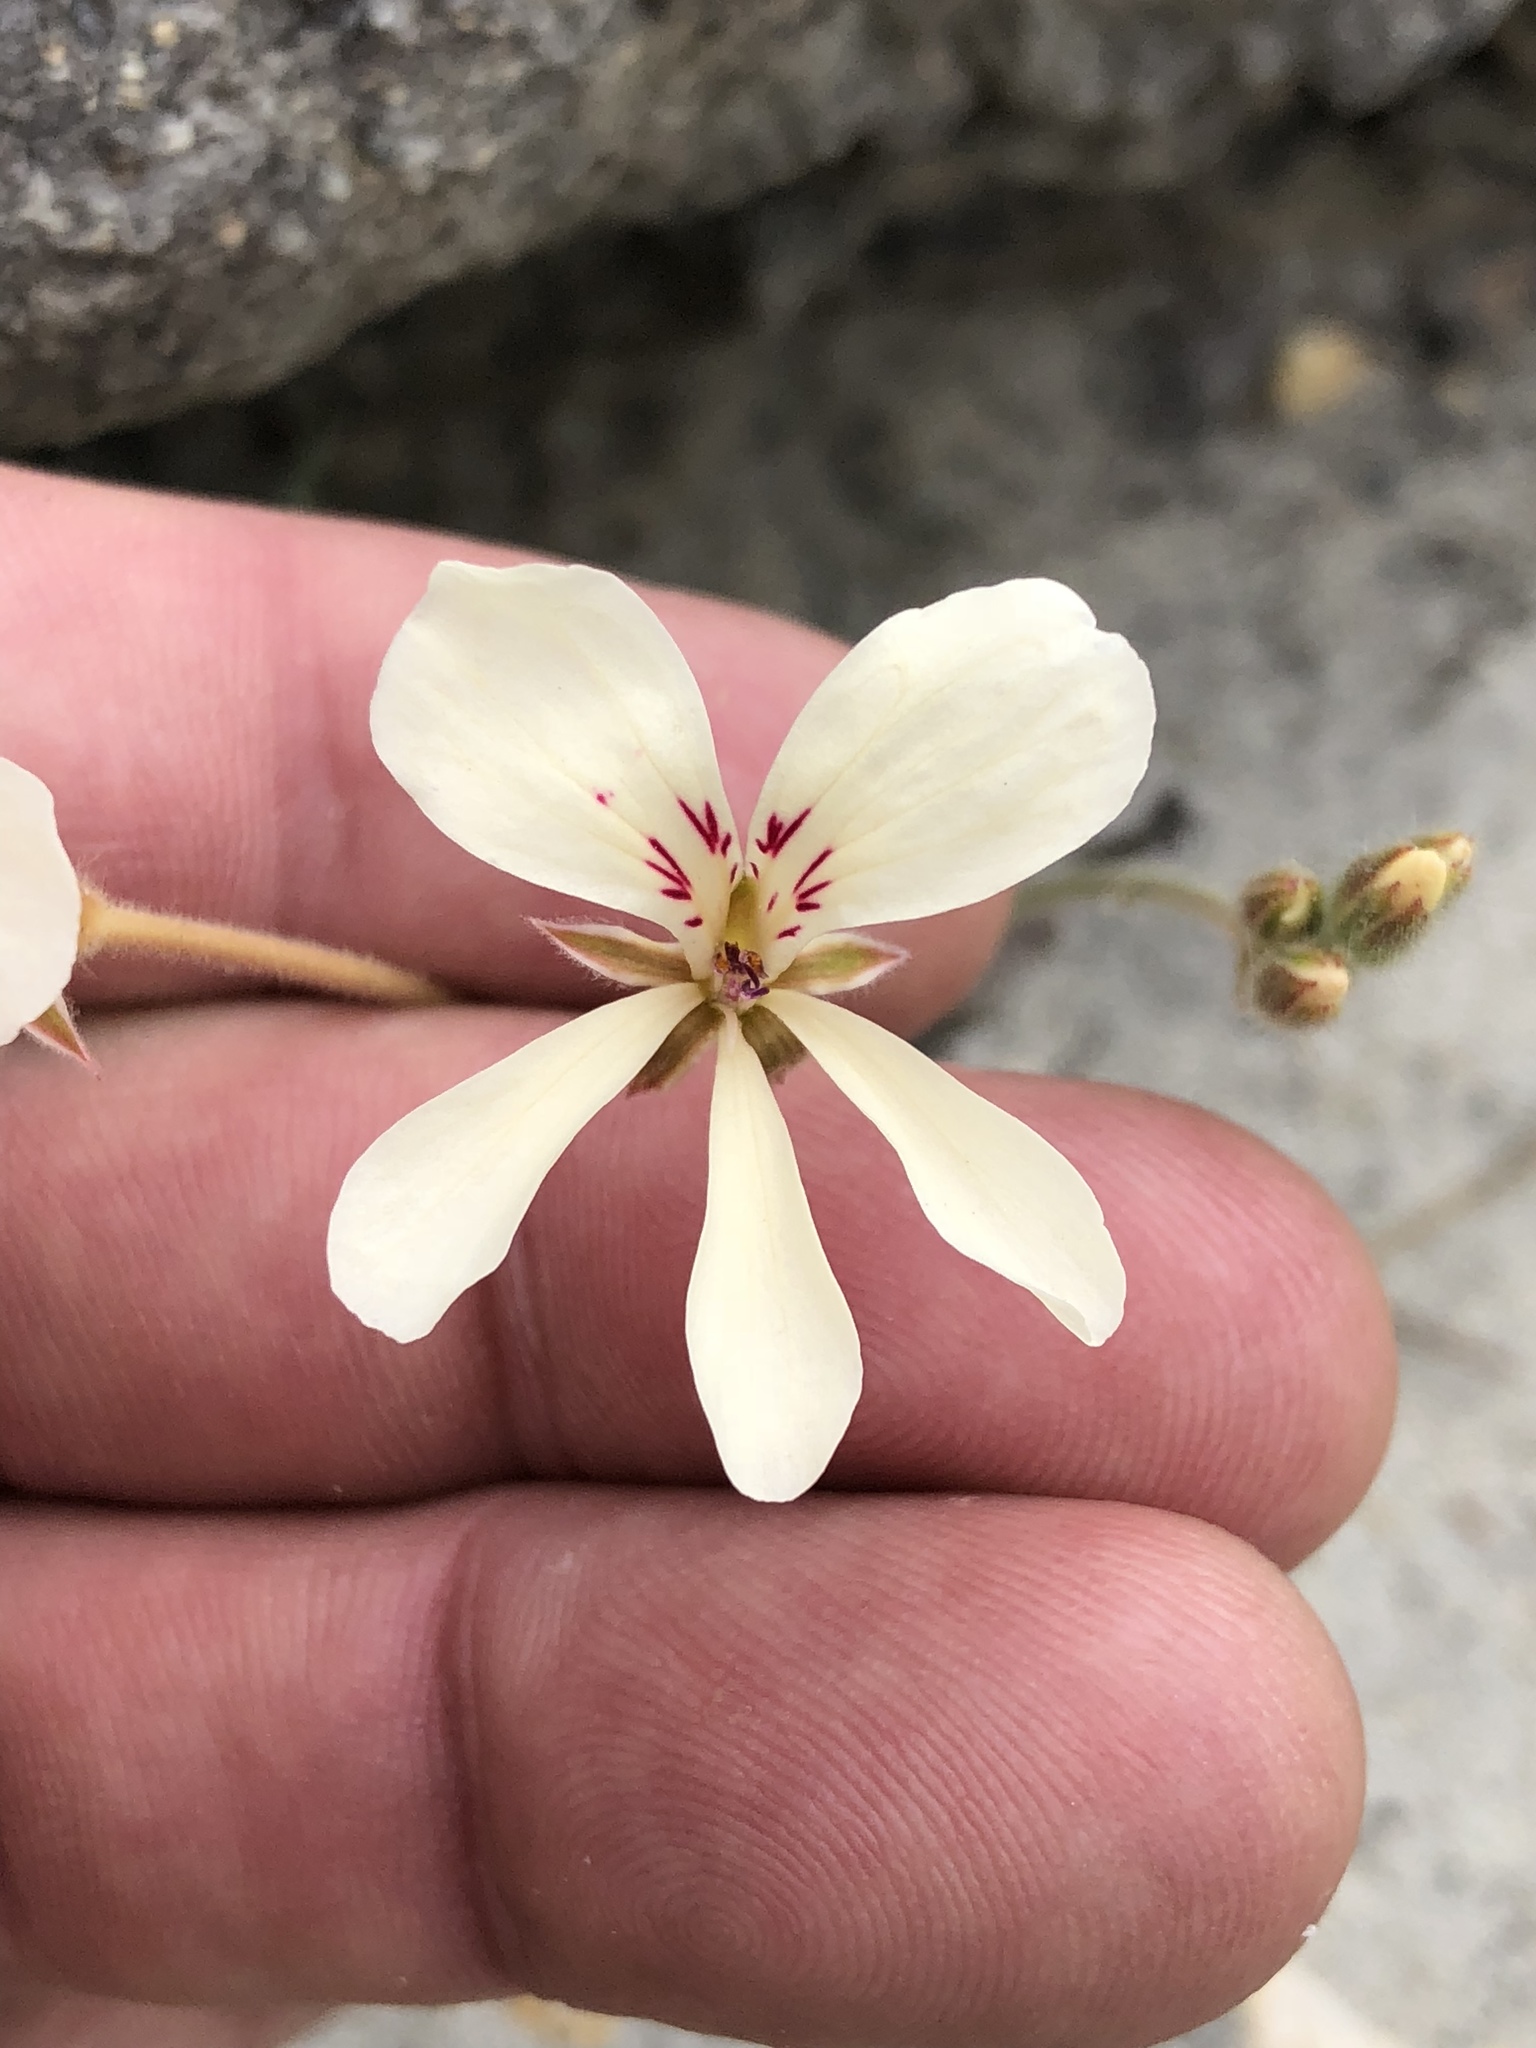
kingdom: Plantae
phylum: Tracheophyta
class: Magnoliopsida
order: Geraniales
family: Geraniaceae
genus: Pelargonium
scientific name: Pelargonium pinnatum
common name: Pinnated pelargonium
